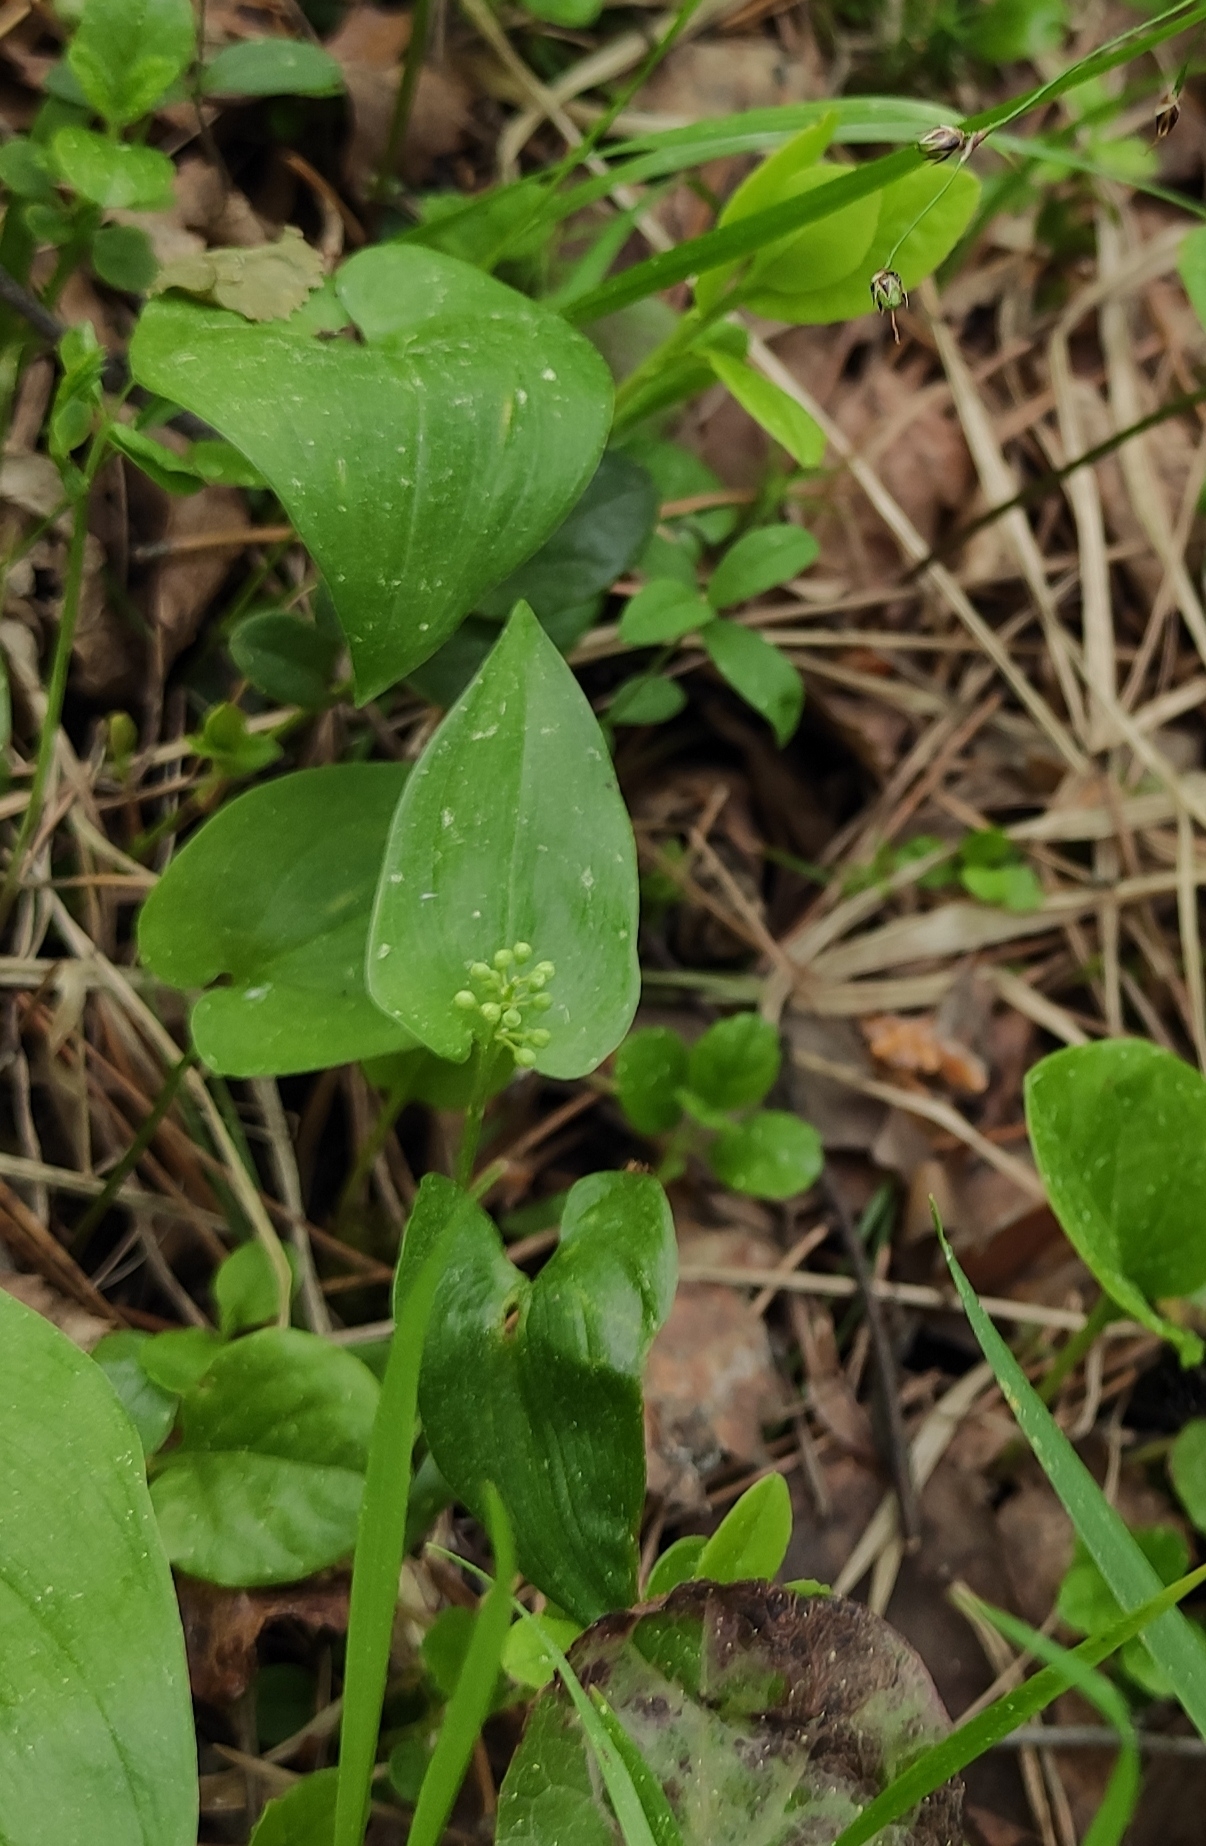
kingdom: Plantae
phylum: Tracheophyta
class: Liliopsida
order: Asparagales
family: Asparagaceae
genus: Maianthemum
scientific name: Maianthemum bifolium
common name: May lily
